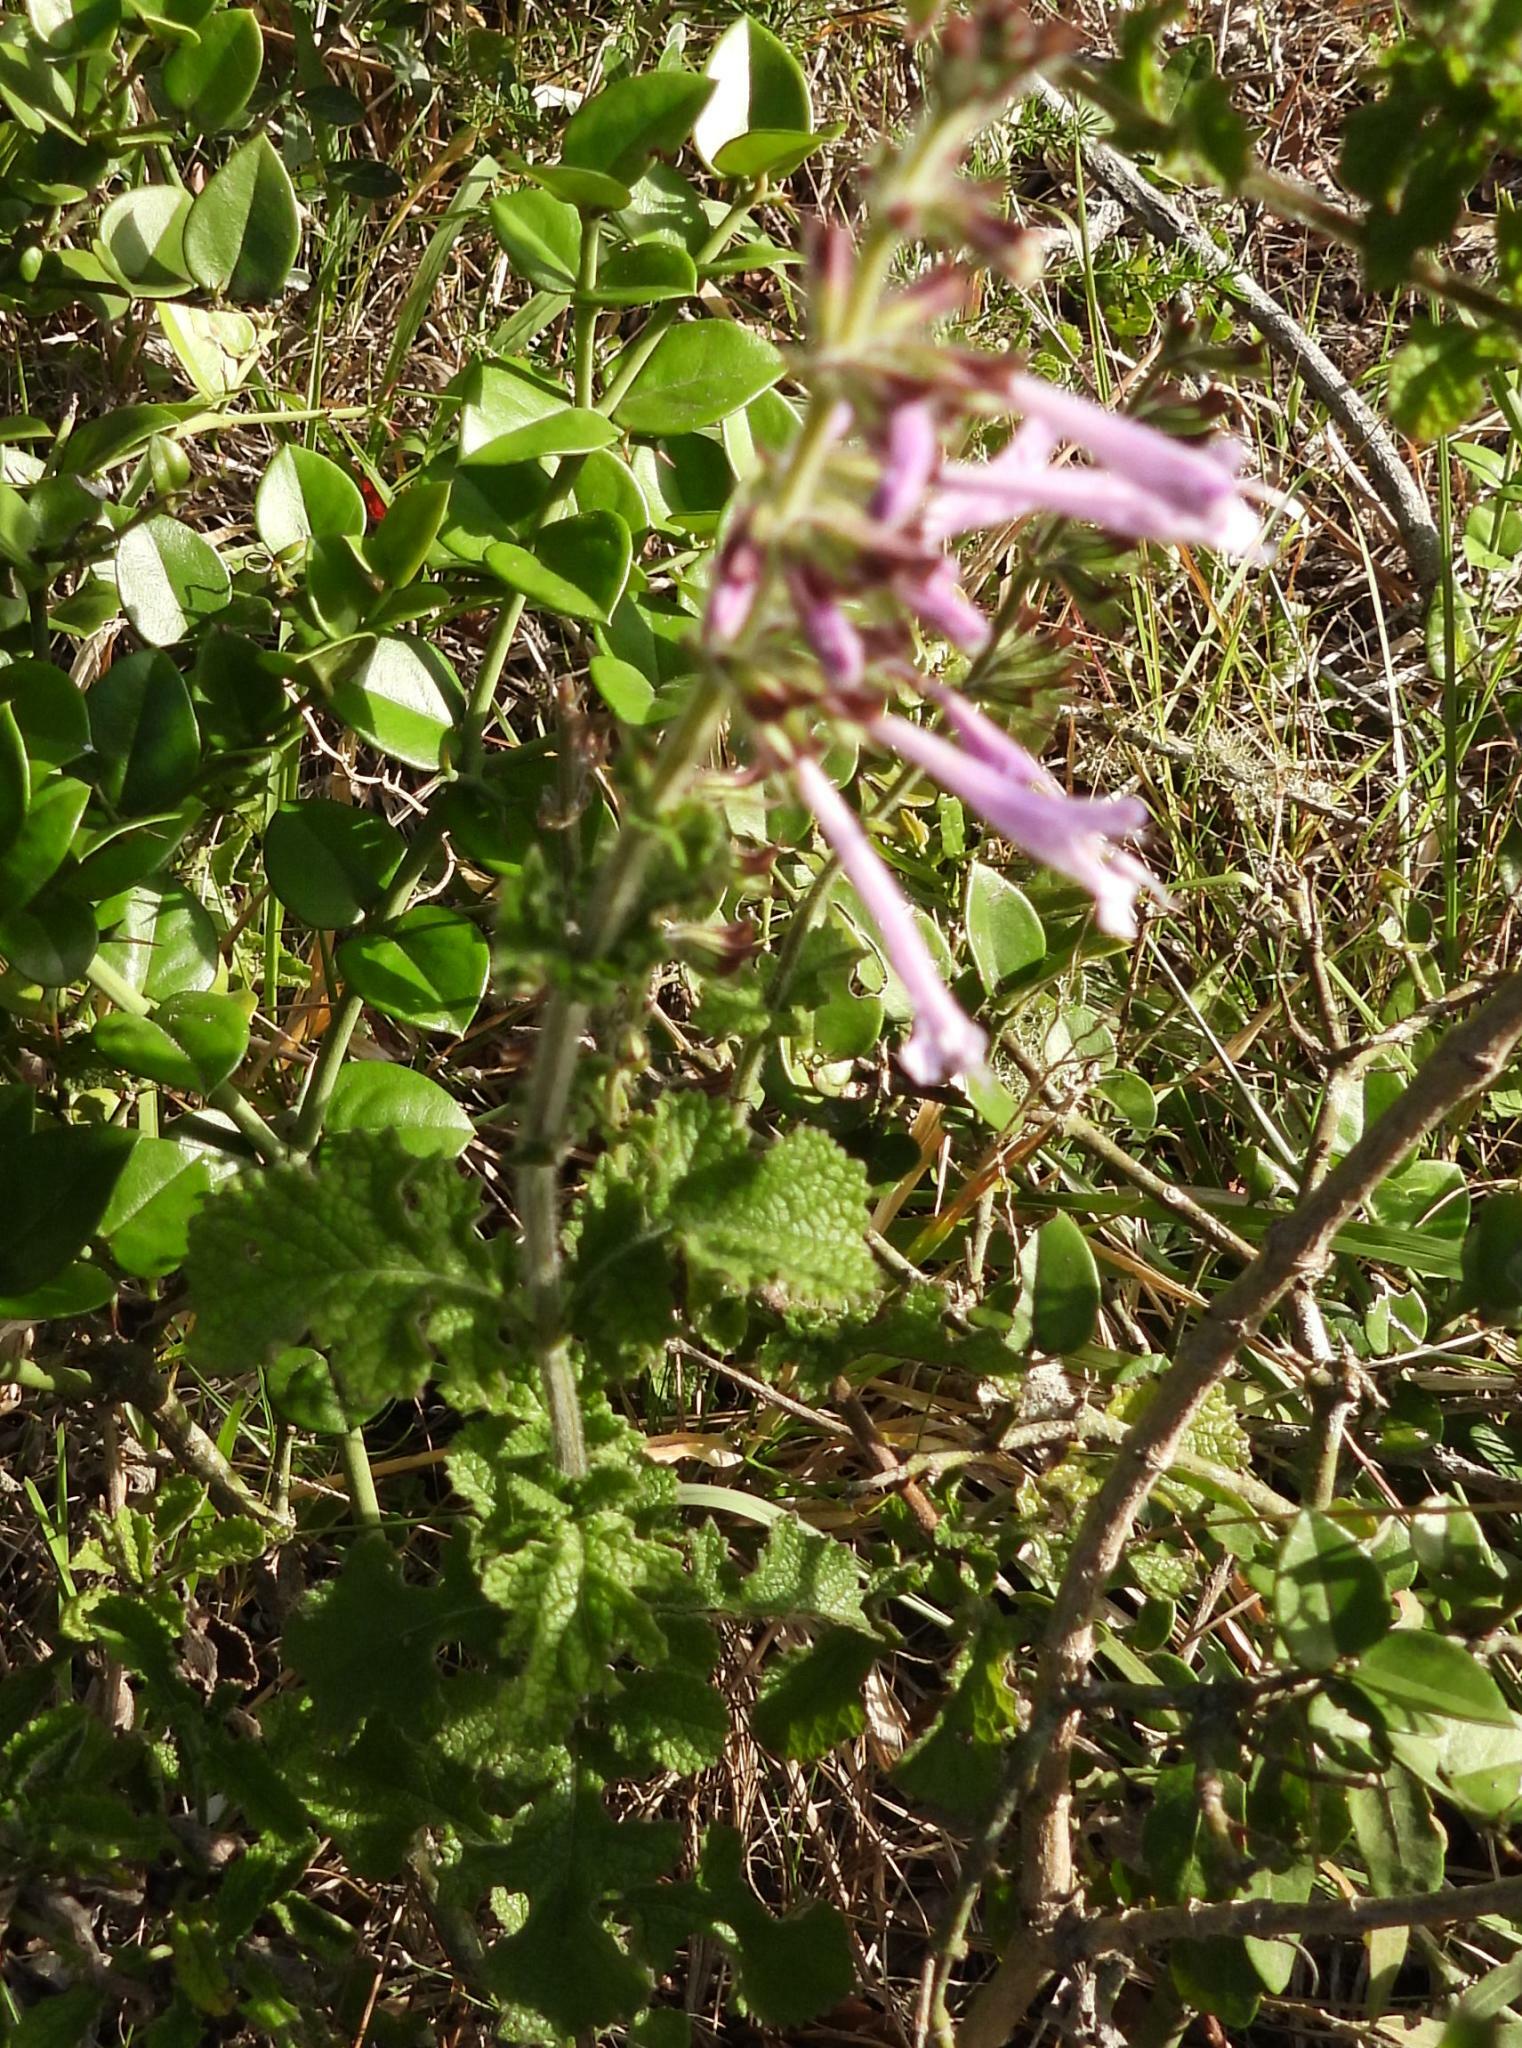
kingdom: Plantae
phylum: Tracheophyta
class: Magnoliopsida
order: Lamiales
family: Lamiaceae
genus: Salvia
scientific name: Salvia scabra
